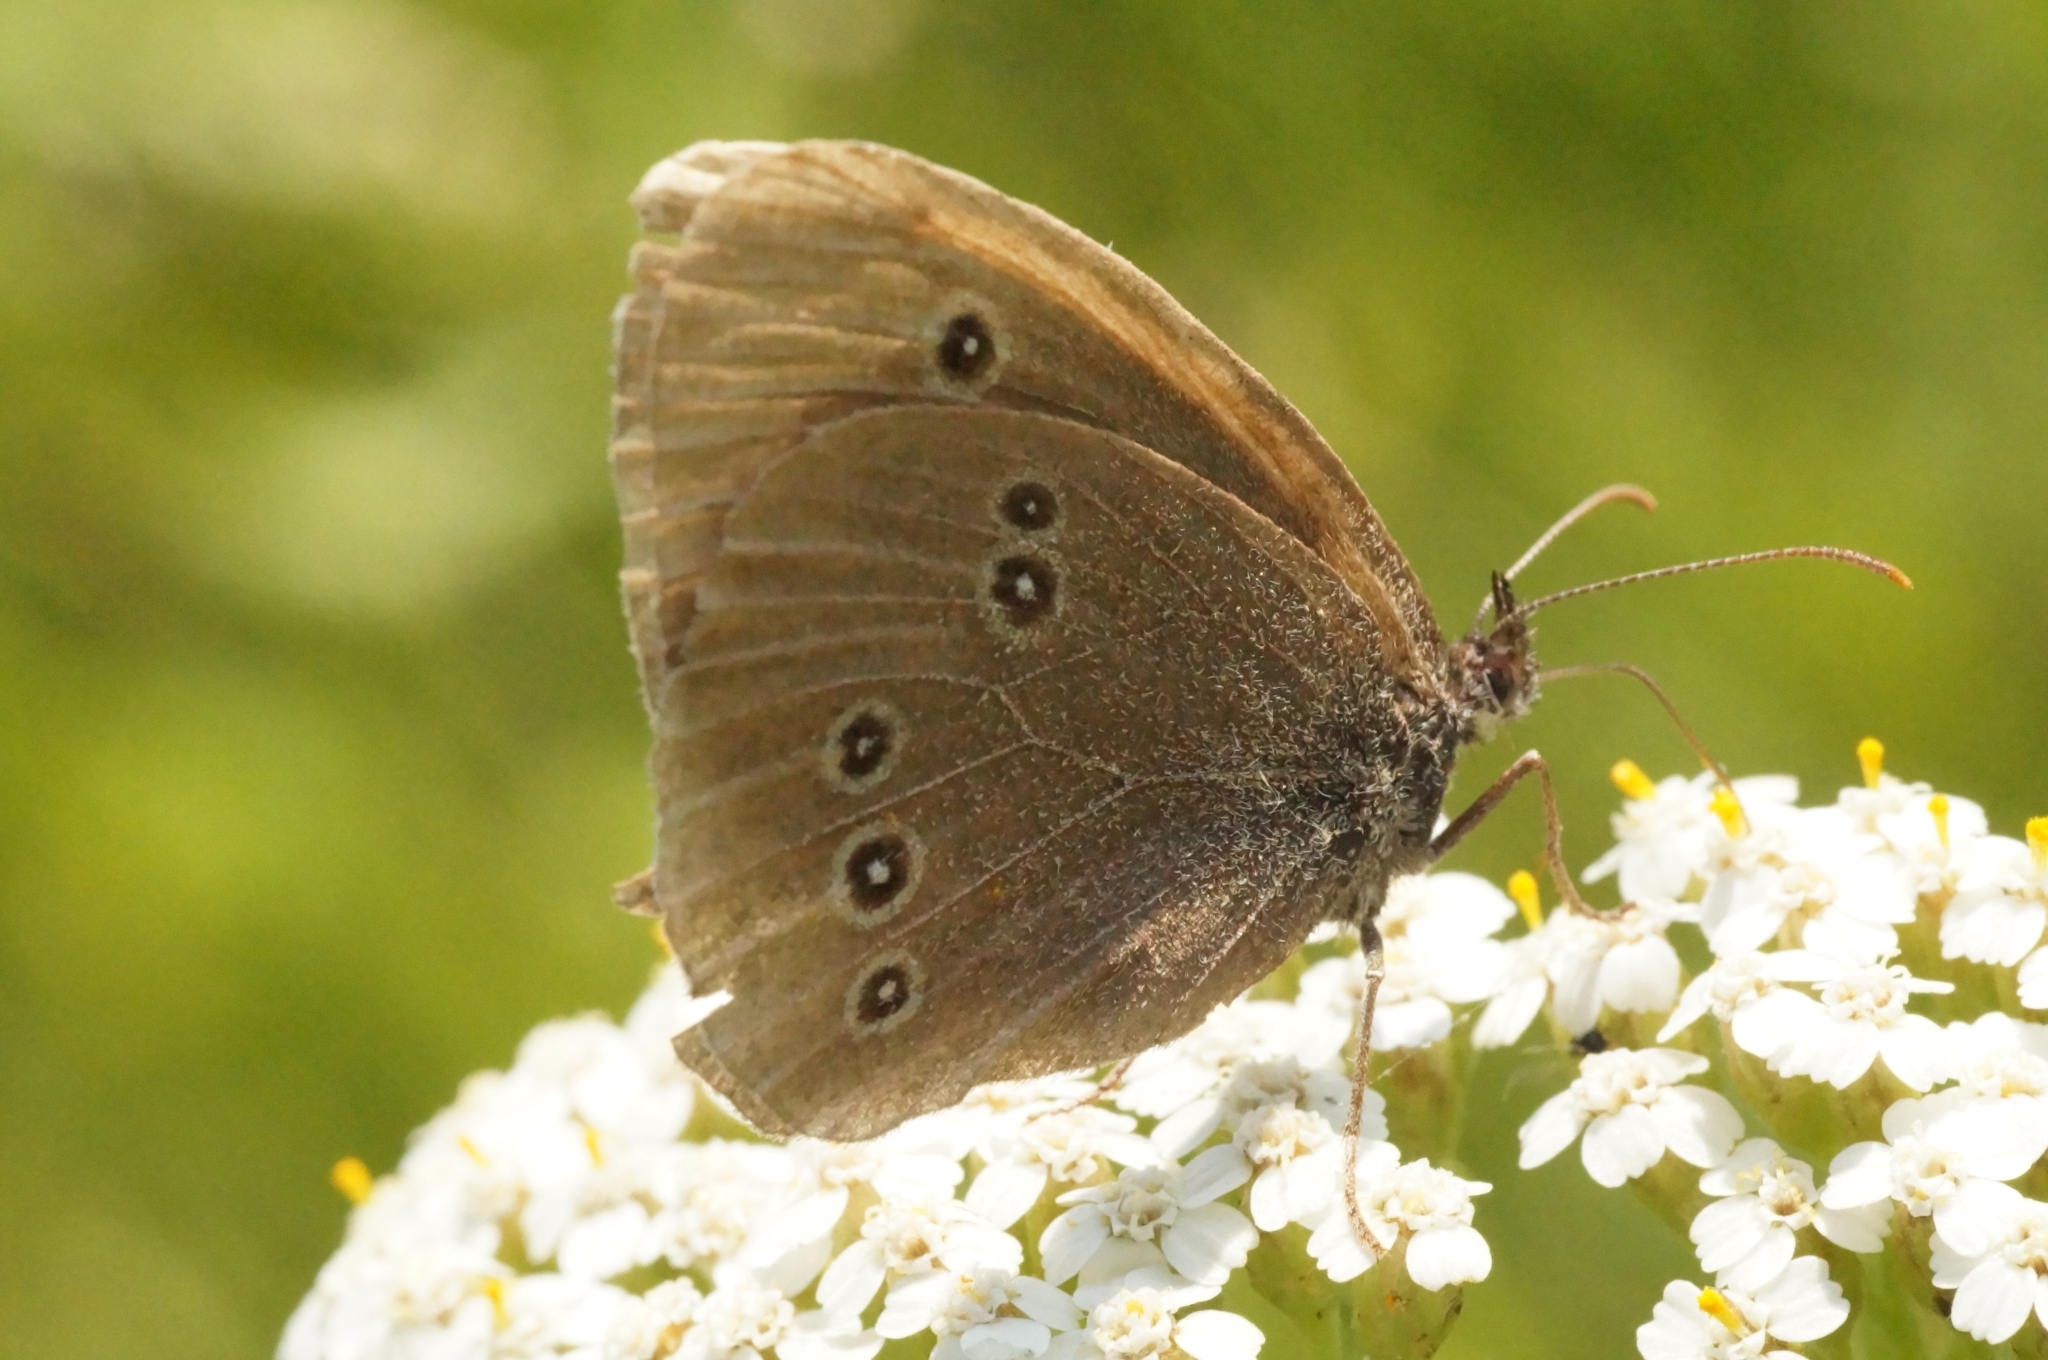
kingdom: Animalia
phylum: Arthropoda
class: Insecta
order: Lepidoptera
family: Nymphalidae
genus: Aphantopus
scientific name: Aphantopus hyperantus
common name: Ringlet
